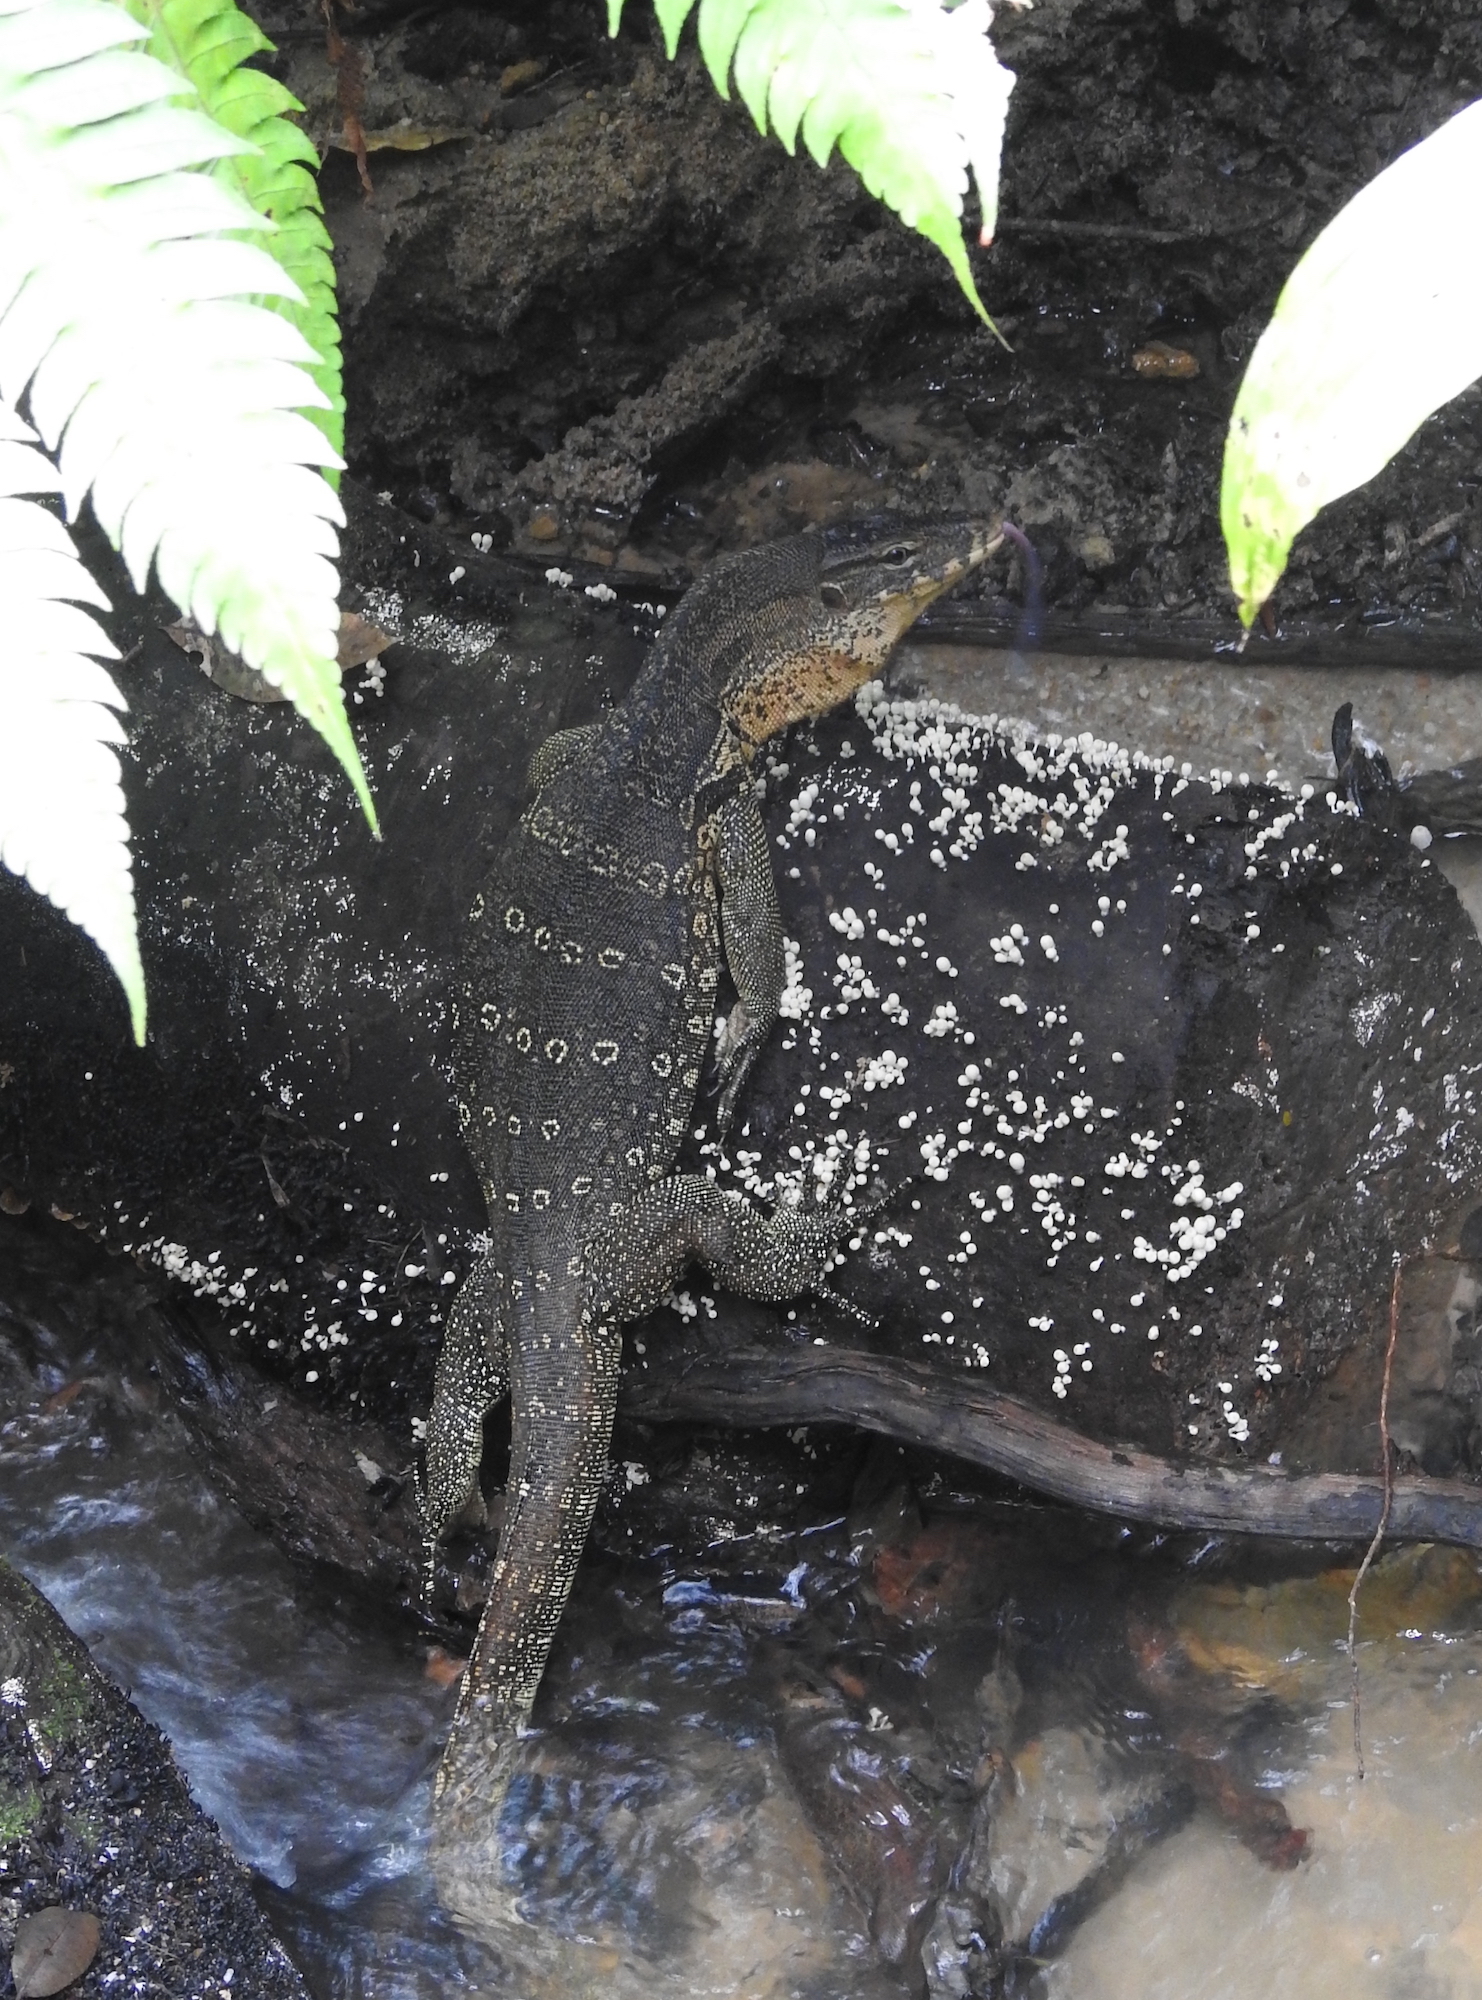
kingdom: Animalia
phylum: Chordata
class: Squamata
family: Varanidae
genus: Varanus
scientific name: Varanus salvator
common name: Common water monitor
